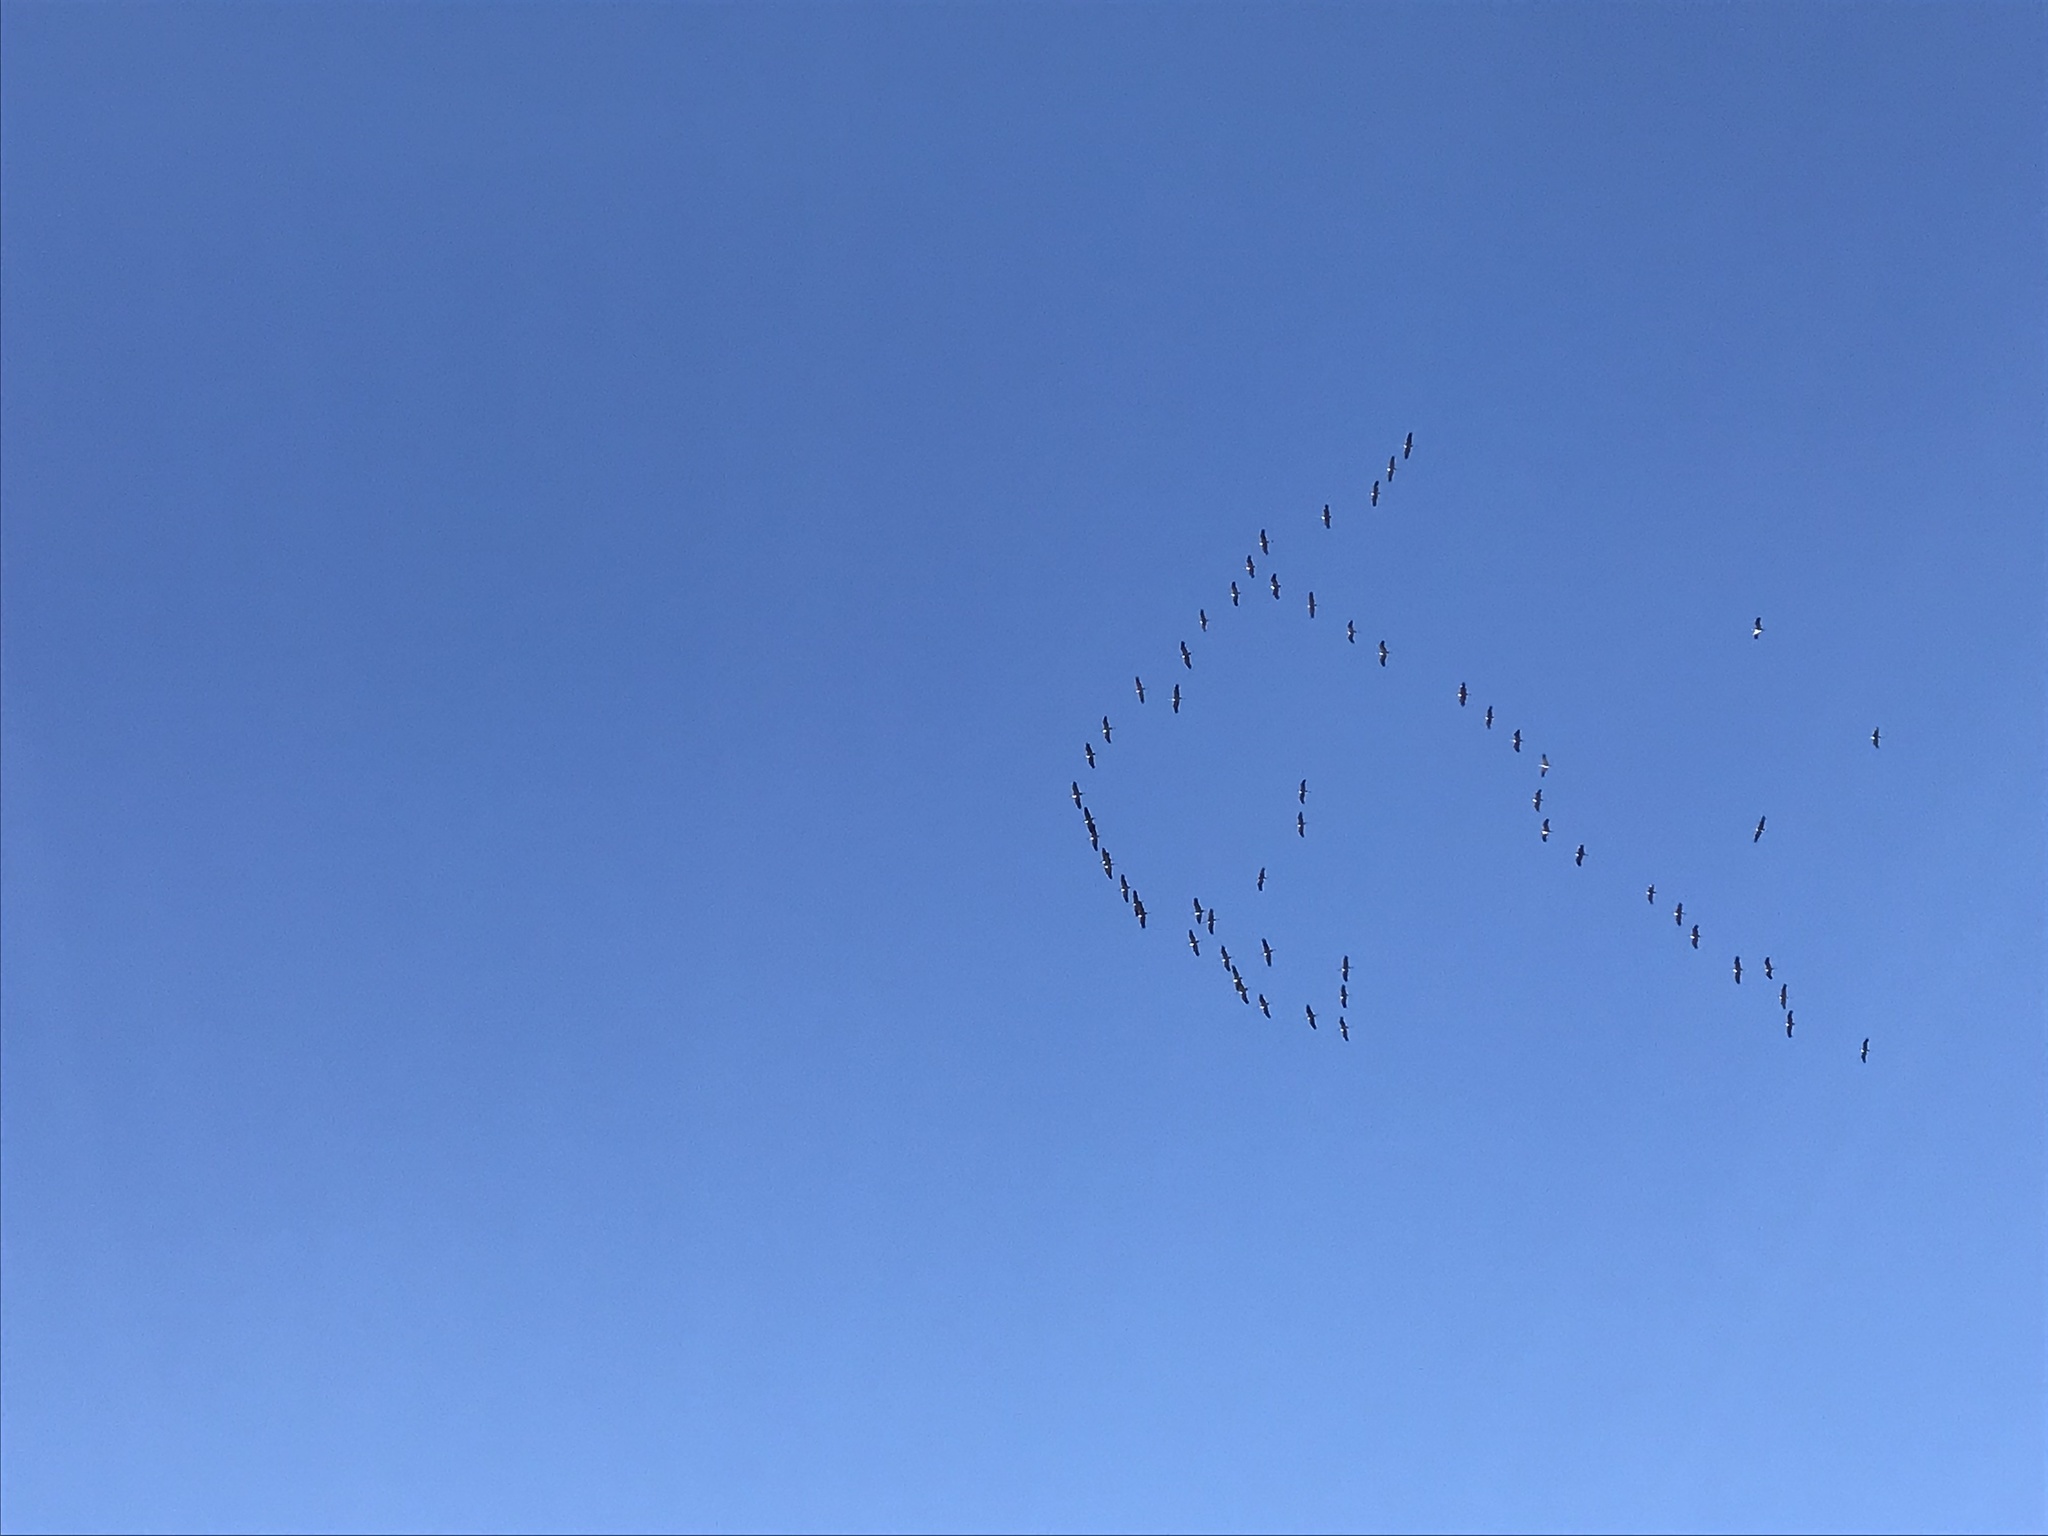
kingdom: Animalia
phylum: Chordata
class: Aves
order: Gruiformes
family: Gruidae
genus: Grus
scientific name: Grus grus
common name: Common crane
